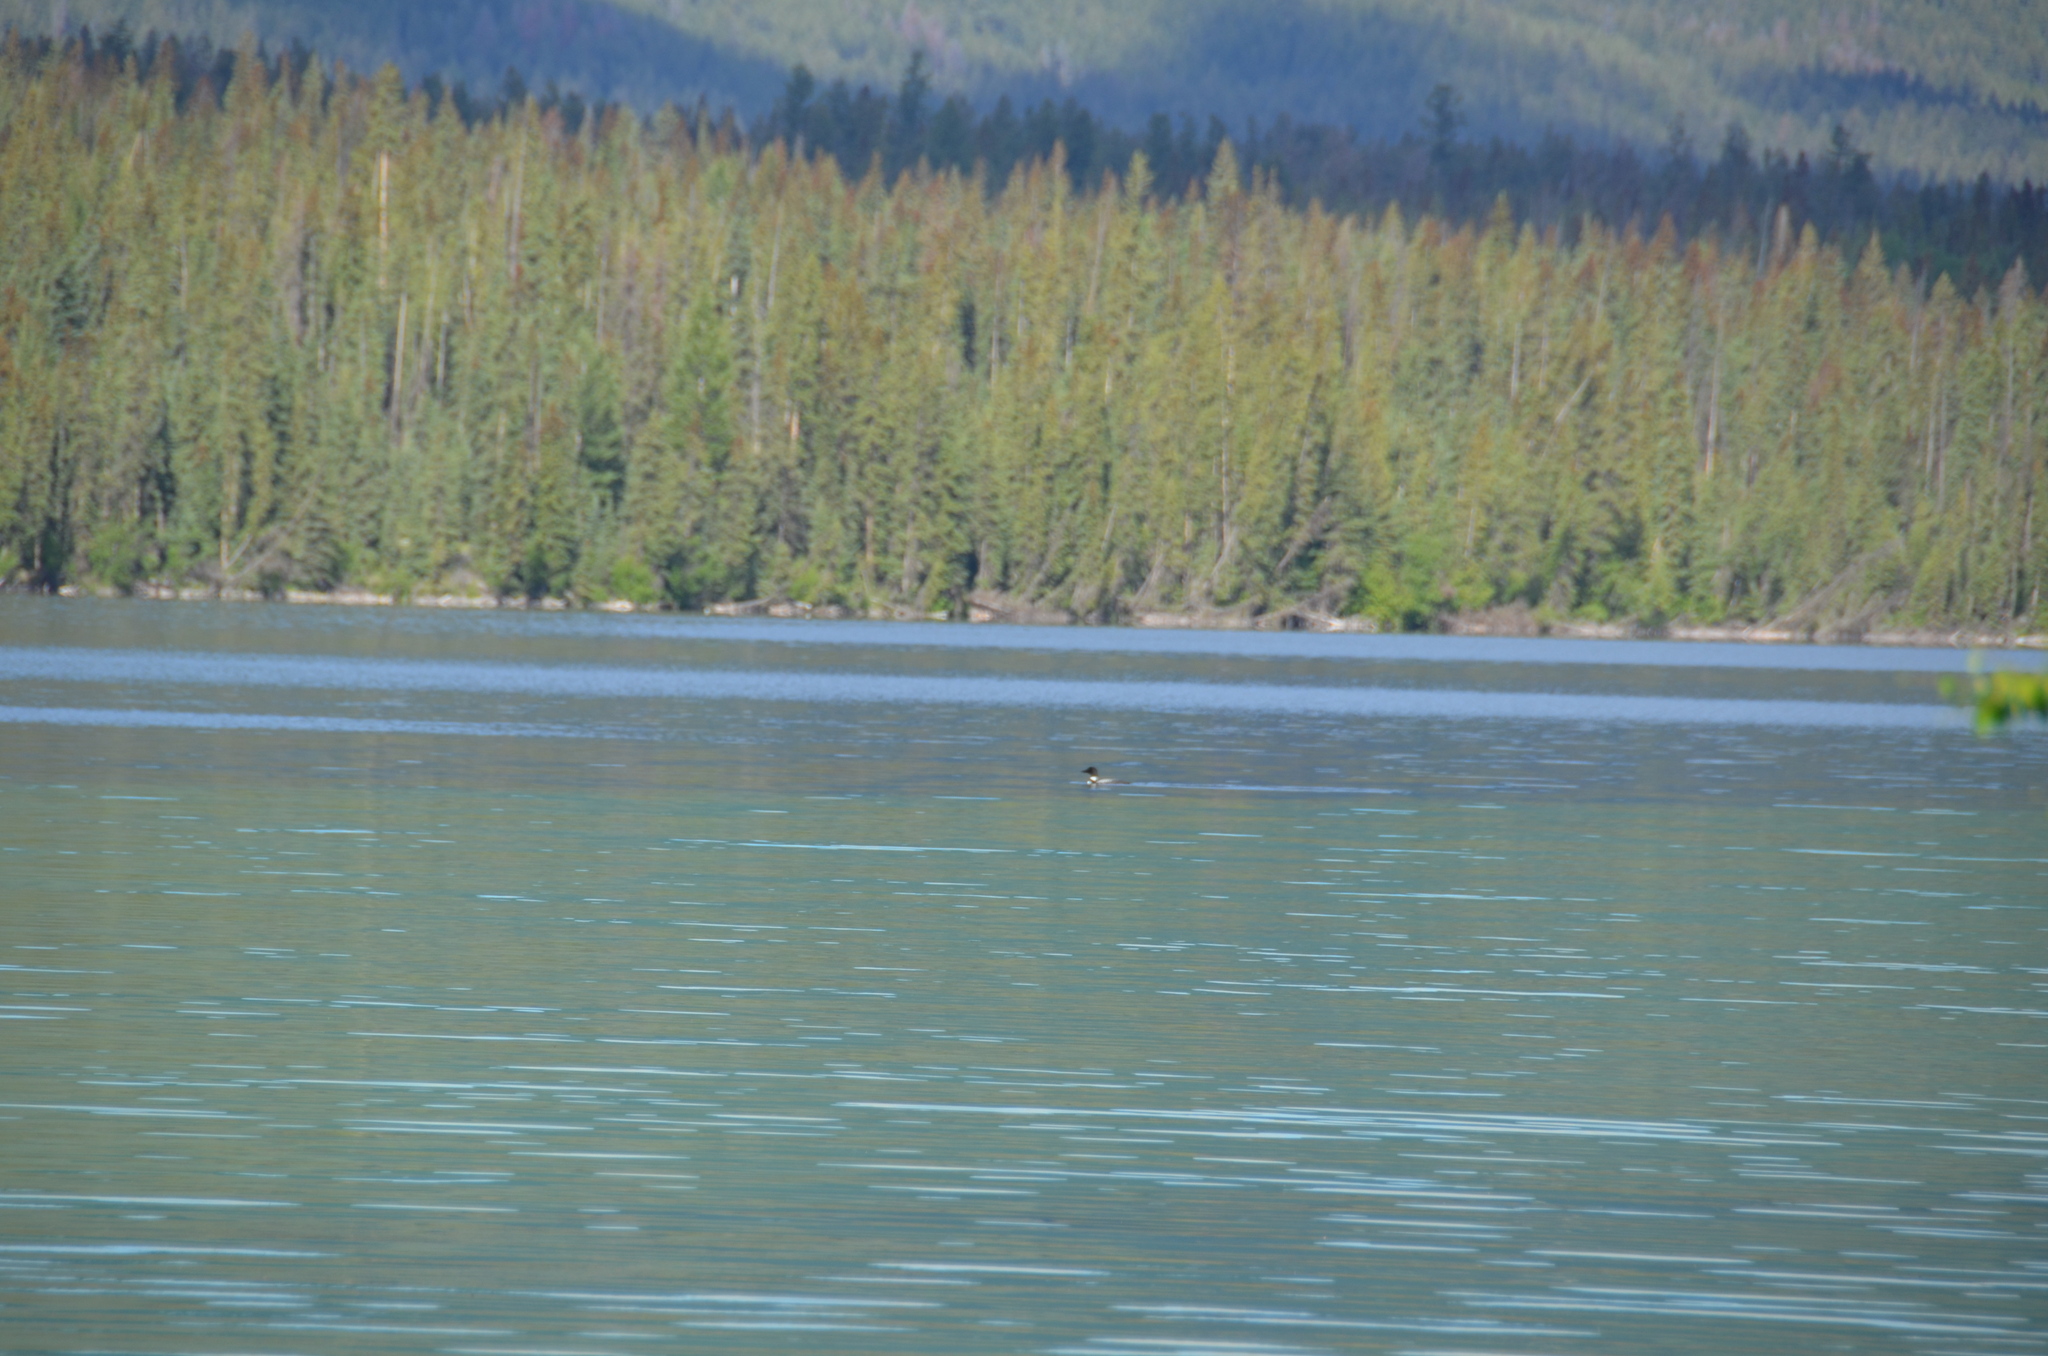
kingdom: Animalia
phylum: Chordata
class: Aves
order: Gaviiformes
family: Gaviidae
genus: Gavia
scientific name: Gavia immer
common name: Common loon
